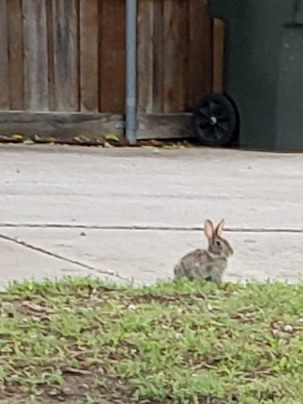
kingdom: Animalia
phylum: Chordata
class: Mammalia
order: Lagomorpha
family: Leporidae
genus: Sylvilagus
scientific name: Sylvilagus floridanus
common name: Eastern cottontail
